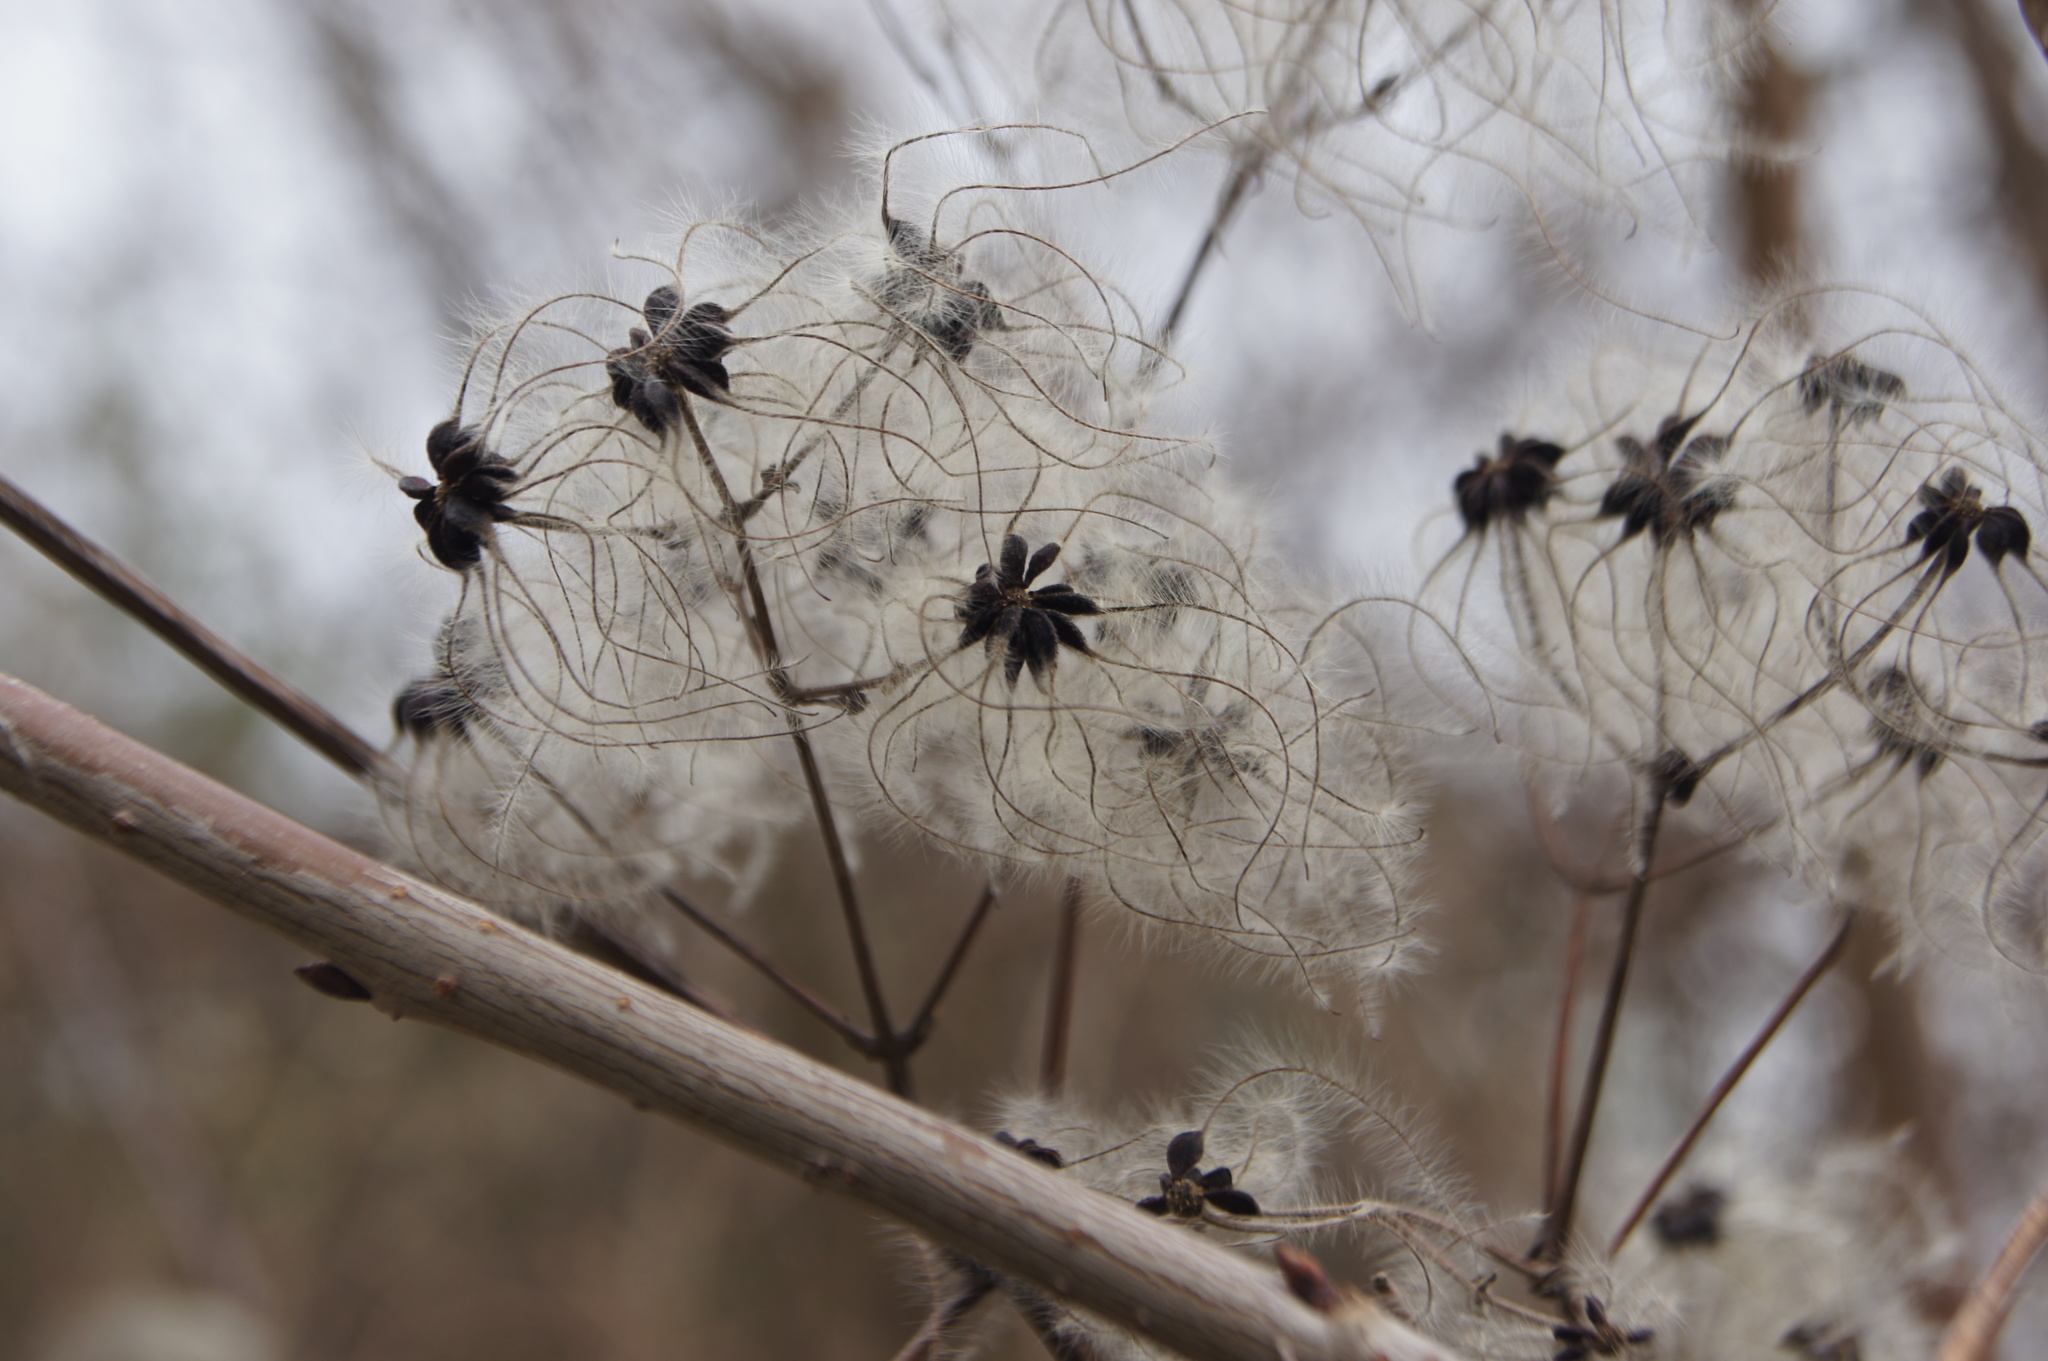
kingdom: Plantae
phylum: Tracheophyta
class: Magnoliopsida
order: Ranunculales
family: Ranunculaceae
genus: Clematis
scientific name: Clematis vitalba
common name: Evergreen clematis
